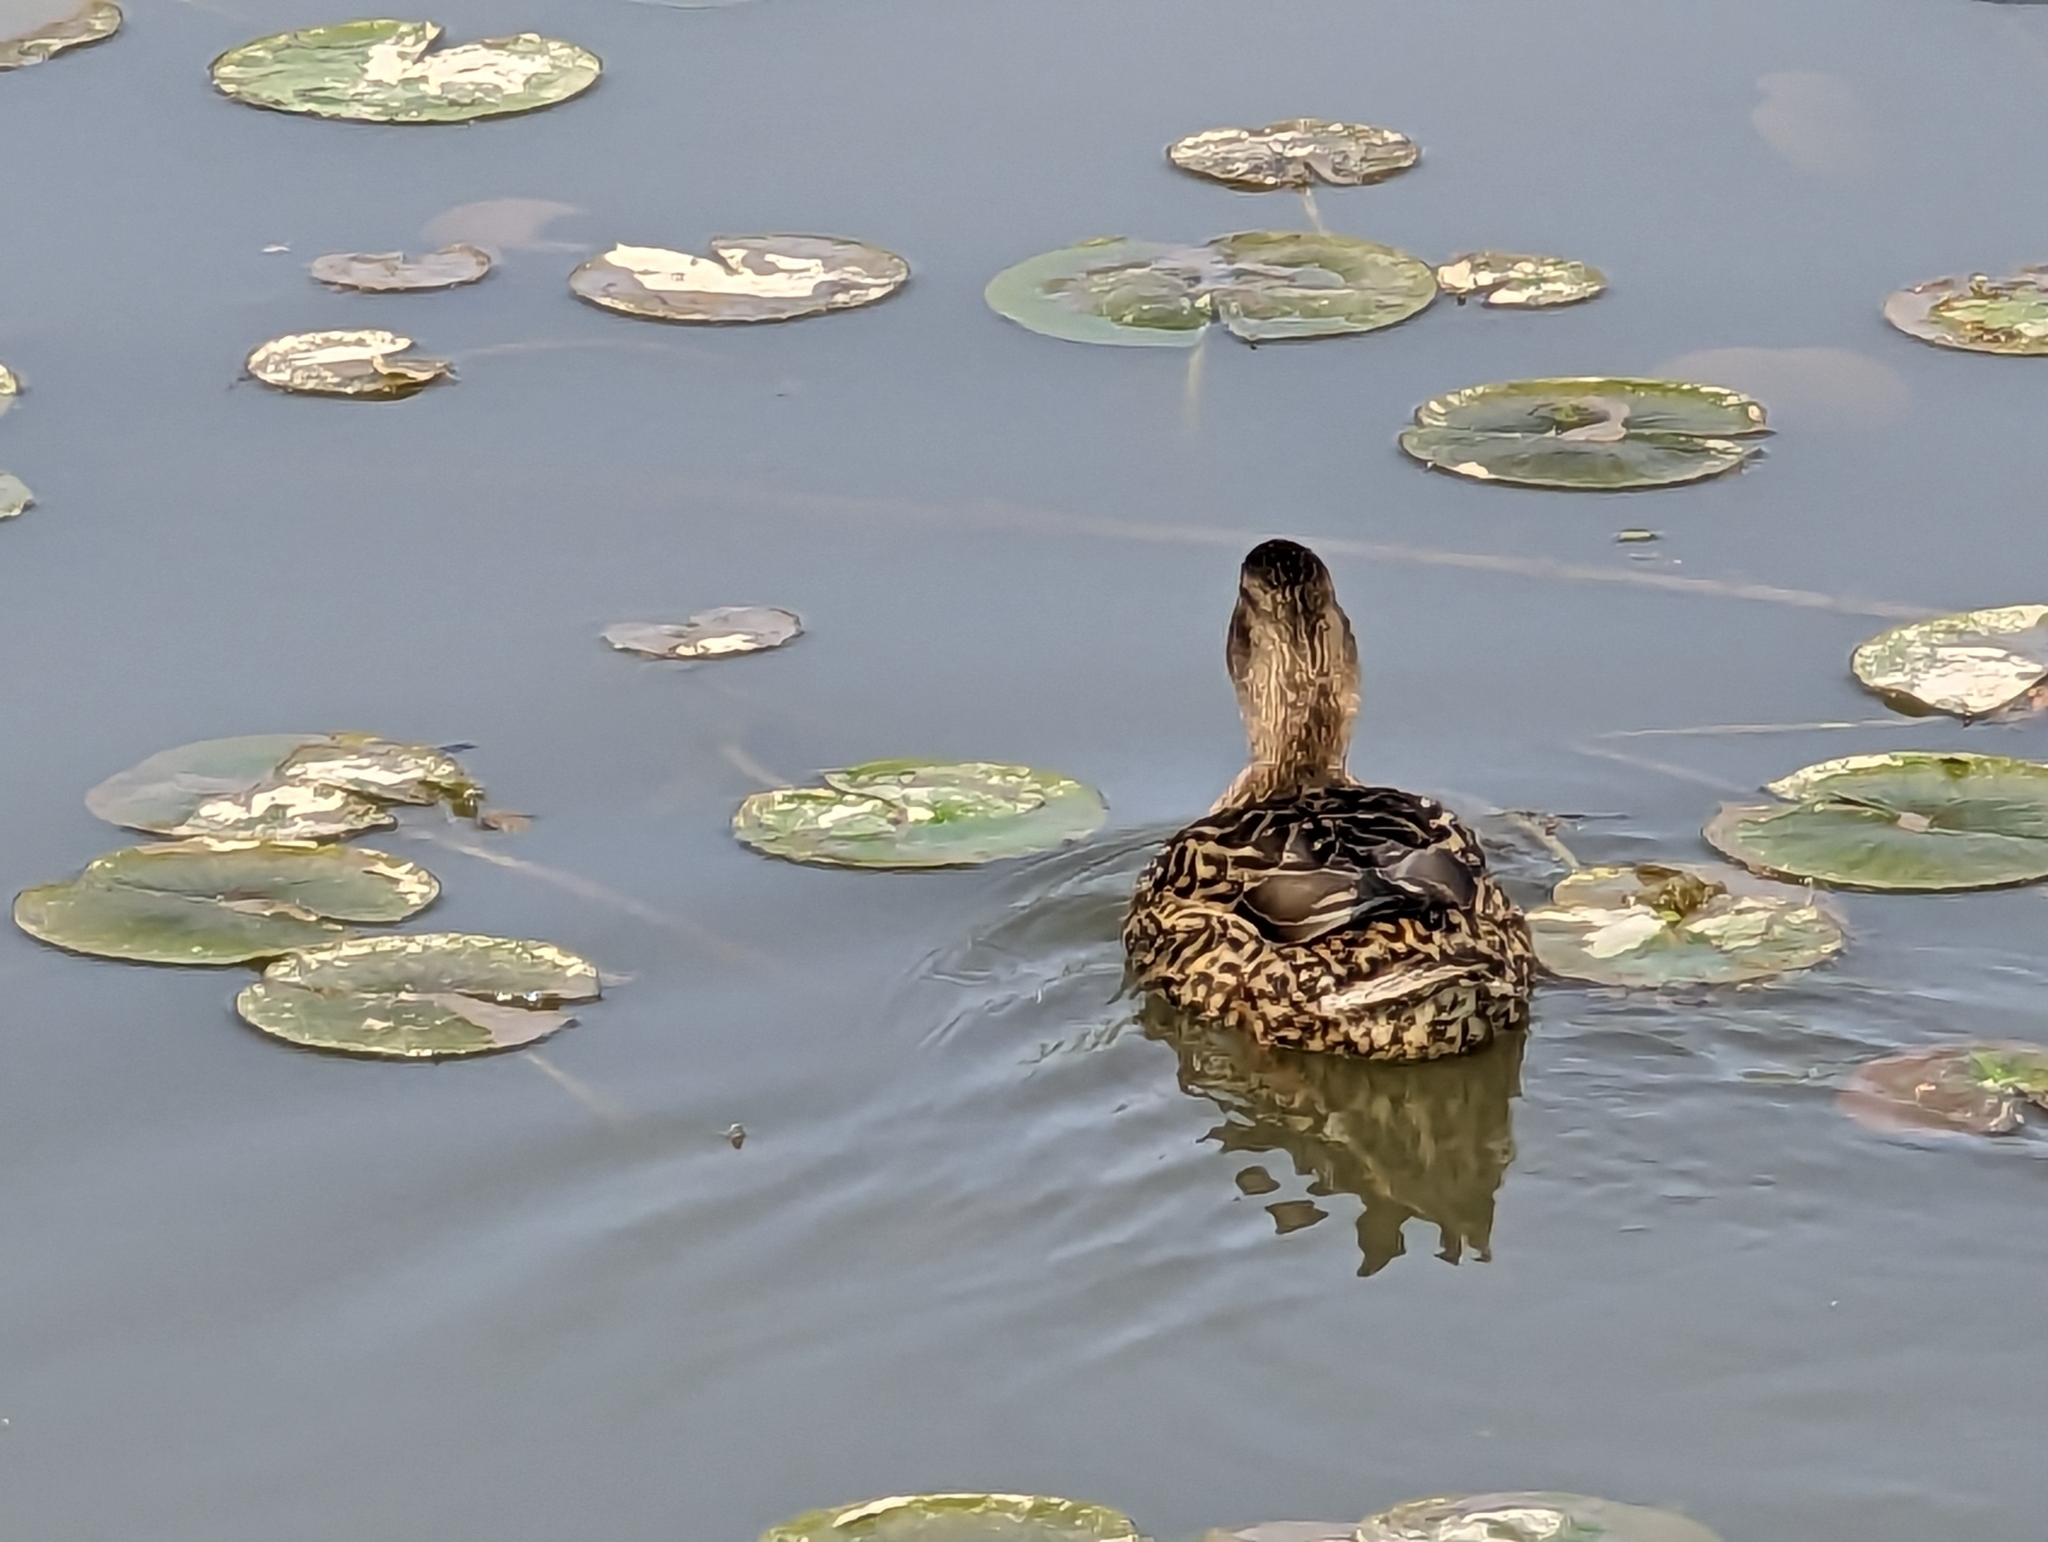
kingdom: Animalia
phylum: Chordata
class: Aves
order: Anseriformes
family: Anatidae
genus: Anas
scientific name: Anas platyrhynchos
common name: Mallard
